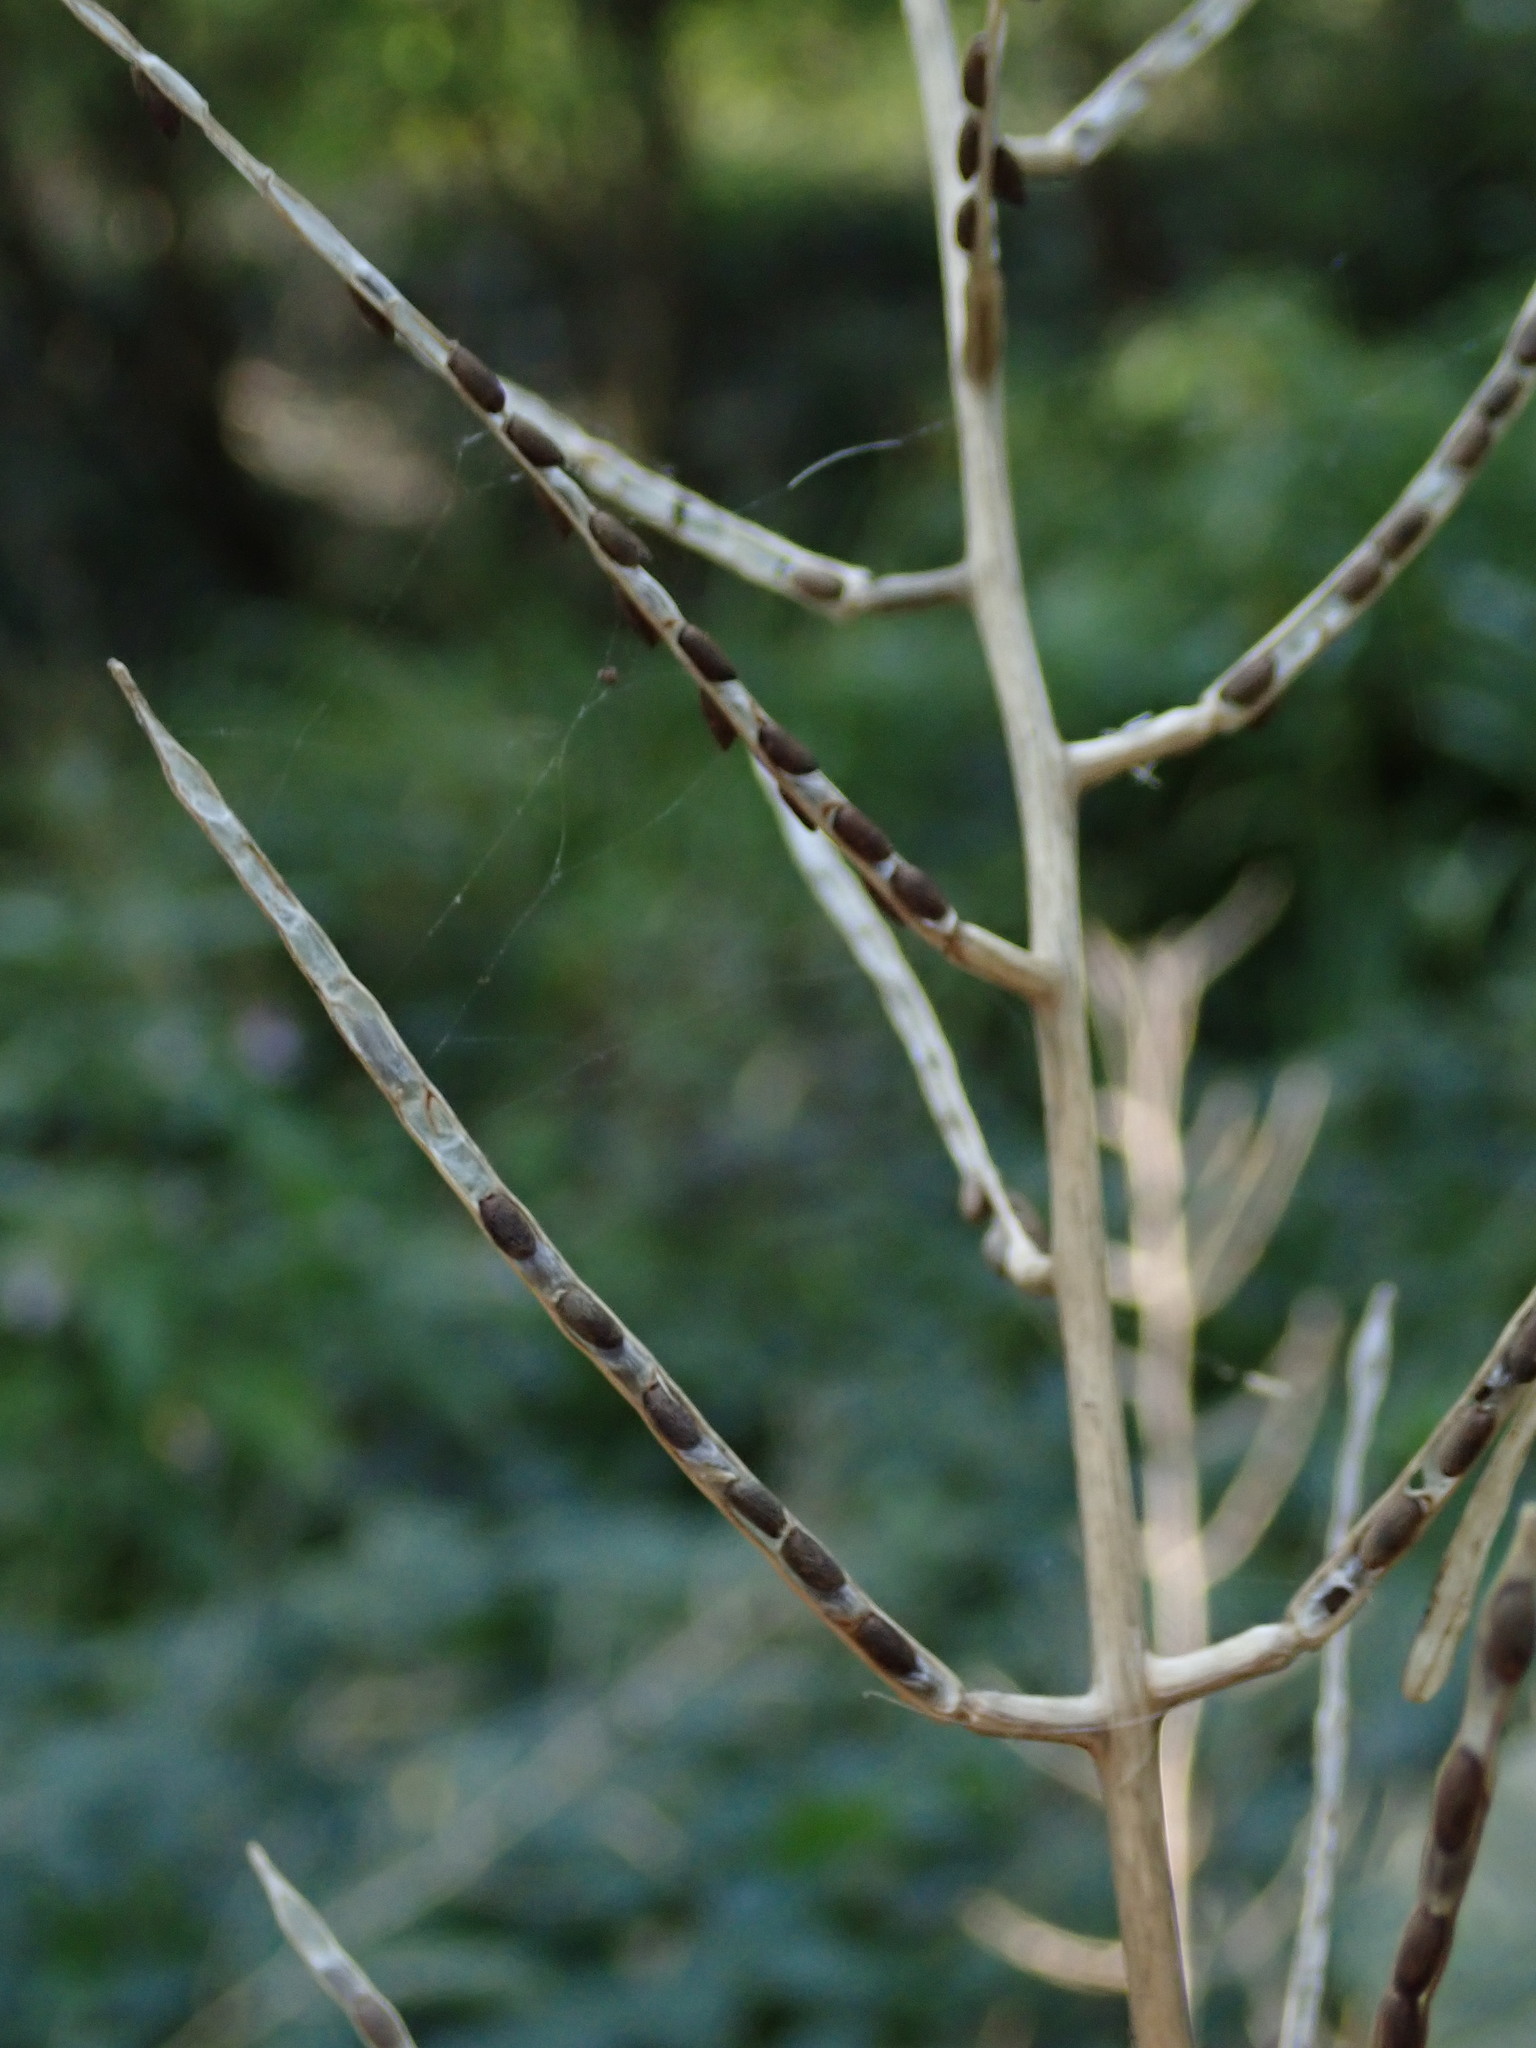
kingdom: Plantae
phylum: Tracheophyta
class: Magnoliopsida
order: Brassicales
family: Brassicaceae
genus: Alliaria
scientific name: Alliaria petiolata
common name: Garlic mustard
